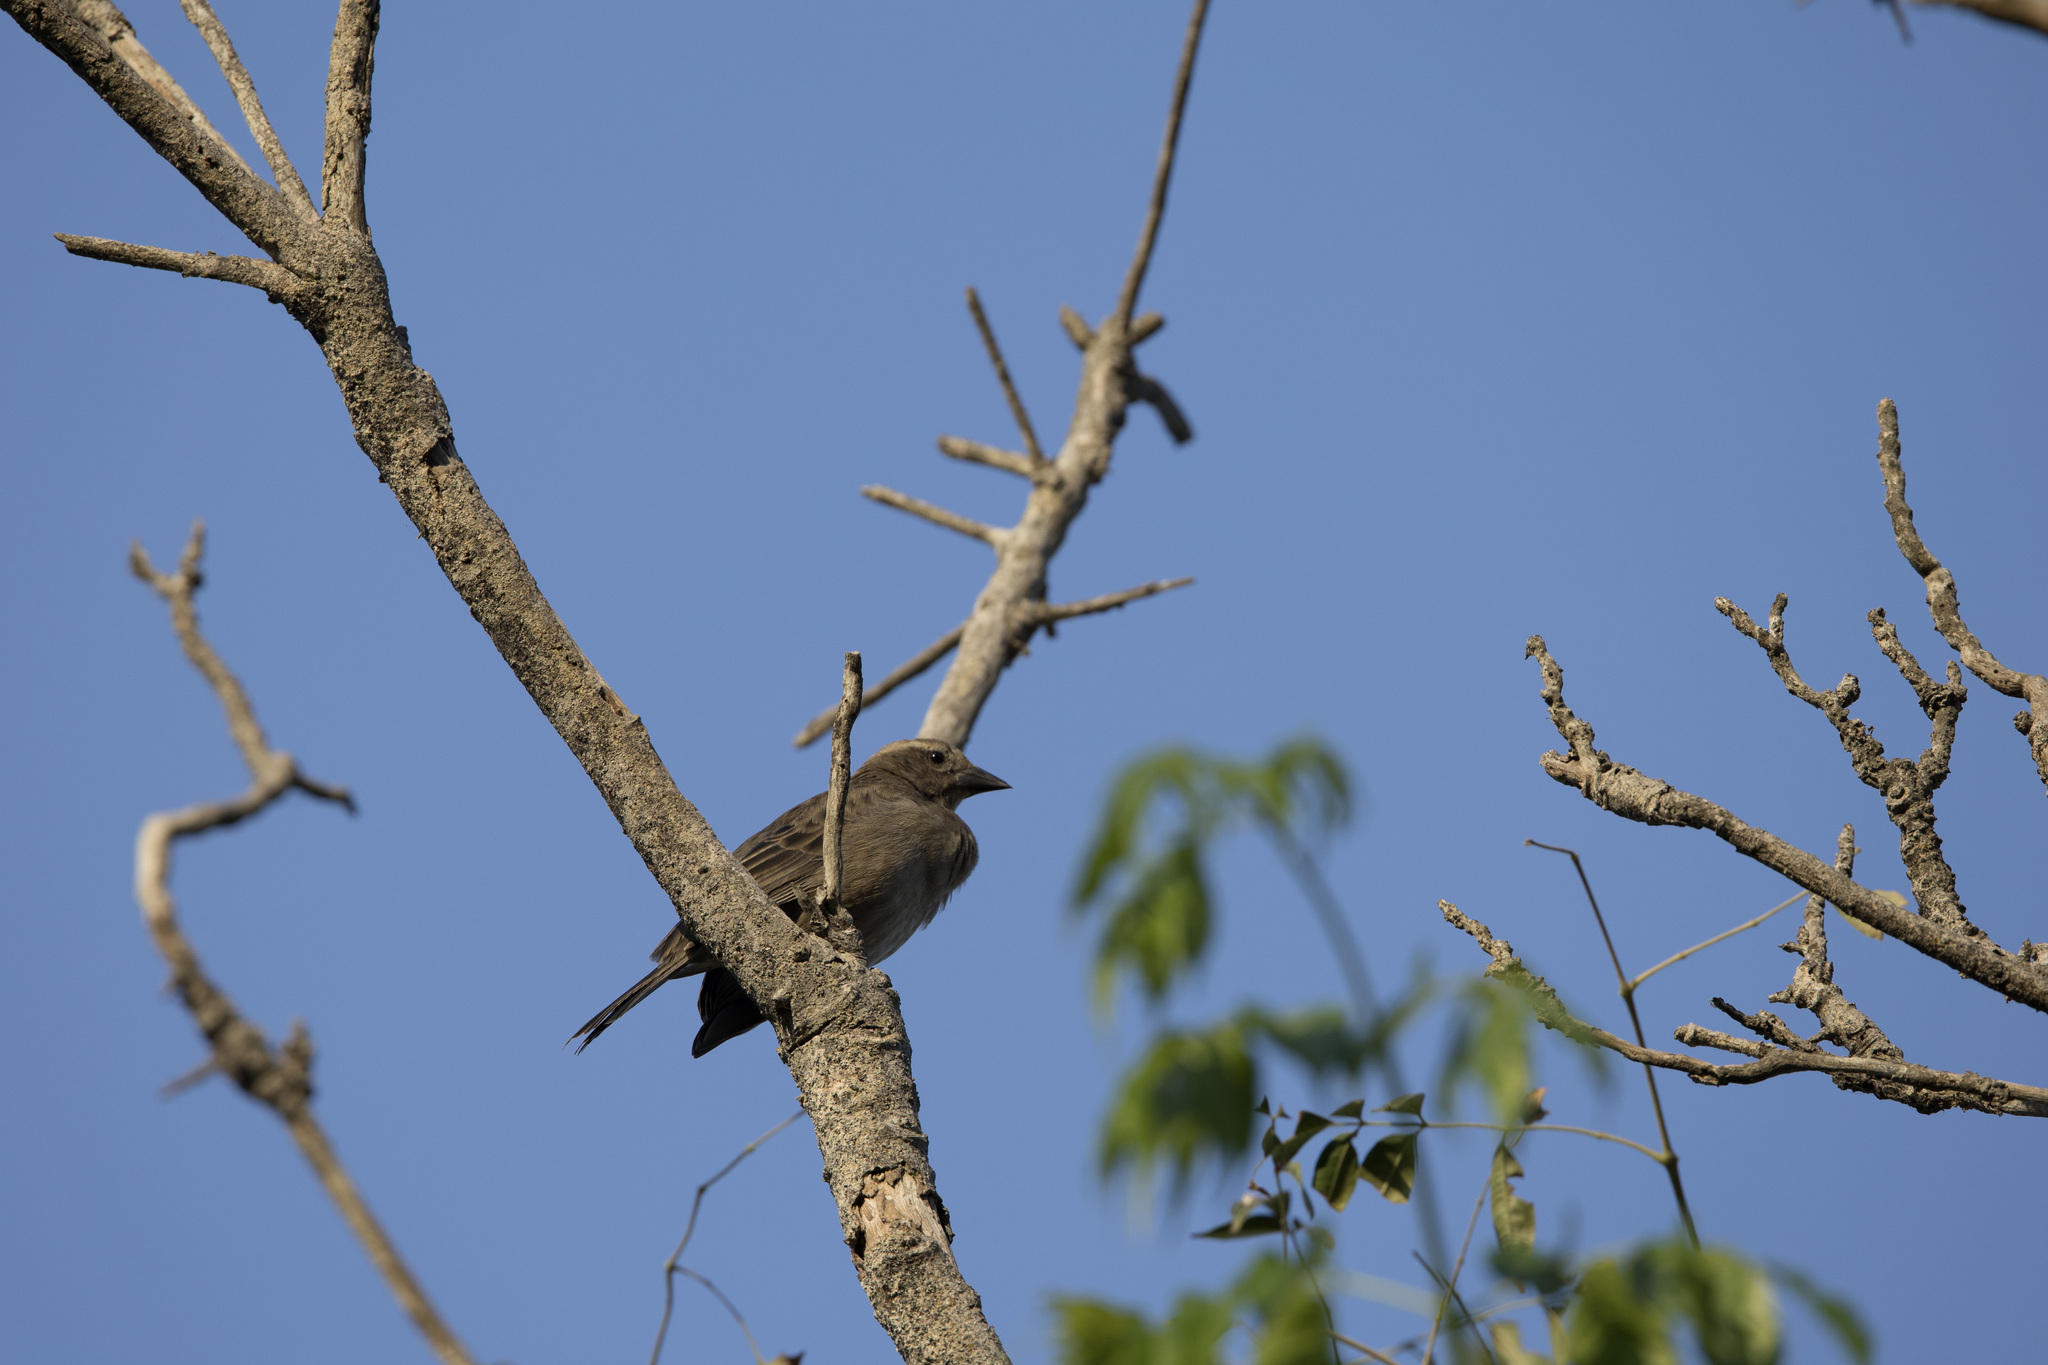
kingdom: Animalia
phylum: Chordata
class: Aves
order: Passeriformes
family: Icteridae
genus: Molothrus
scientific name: Molothrus bonariensis
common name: Shiny cowbird
